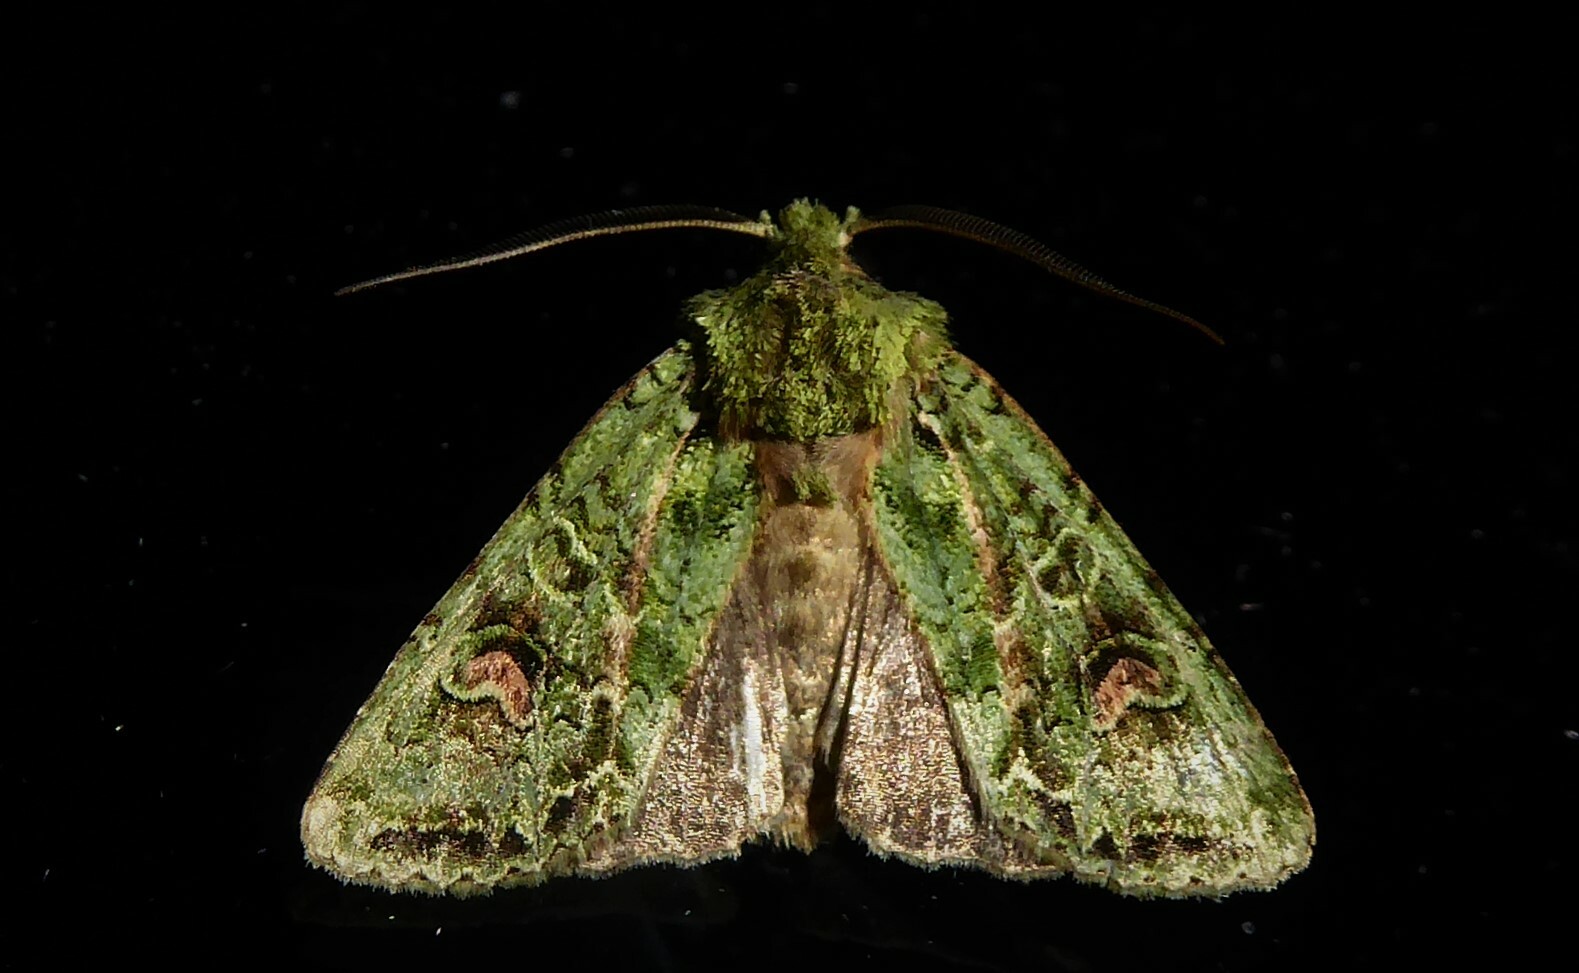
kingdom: Animalia
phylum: Arthropoda
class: Insecta
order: Lepidoptera
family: Noctuidae
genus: Ichneutica
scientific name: Ichneutica
